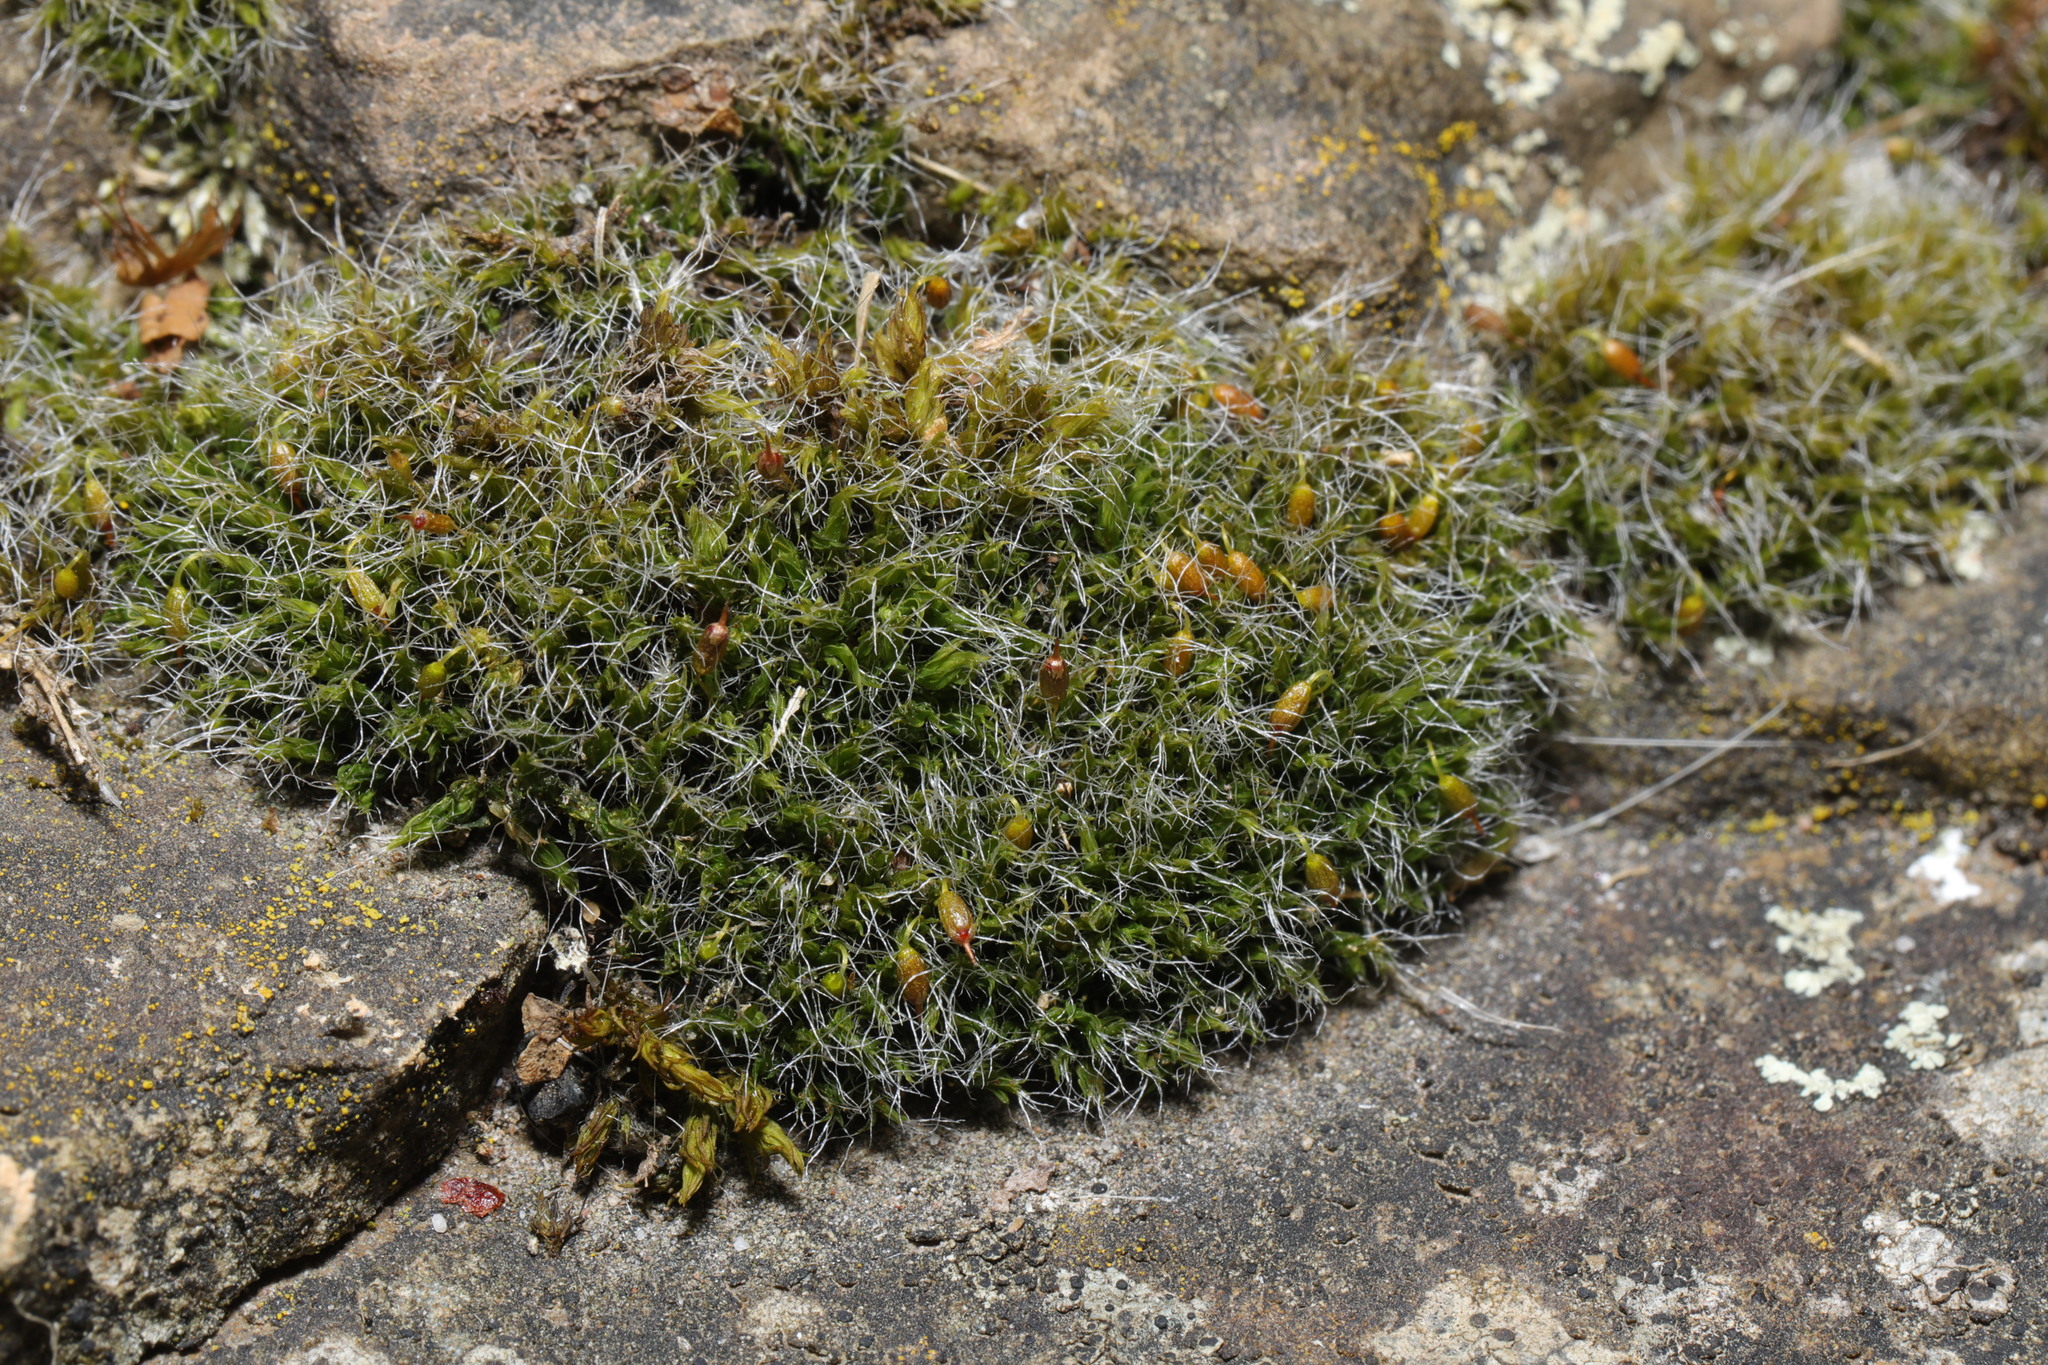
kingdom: Plantae
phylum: Bryophyta
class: Bryopsida
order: Grimmiales
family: Grimmiaceae
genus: Grimmia
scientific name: Grimmia pulvinata
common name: Grey-cushioned grimmia
